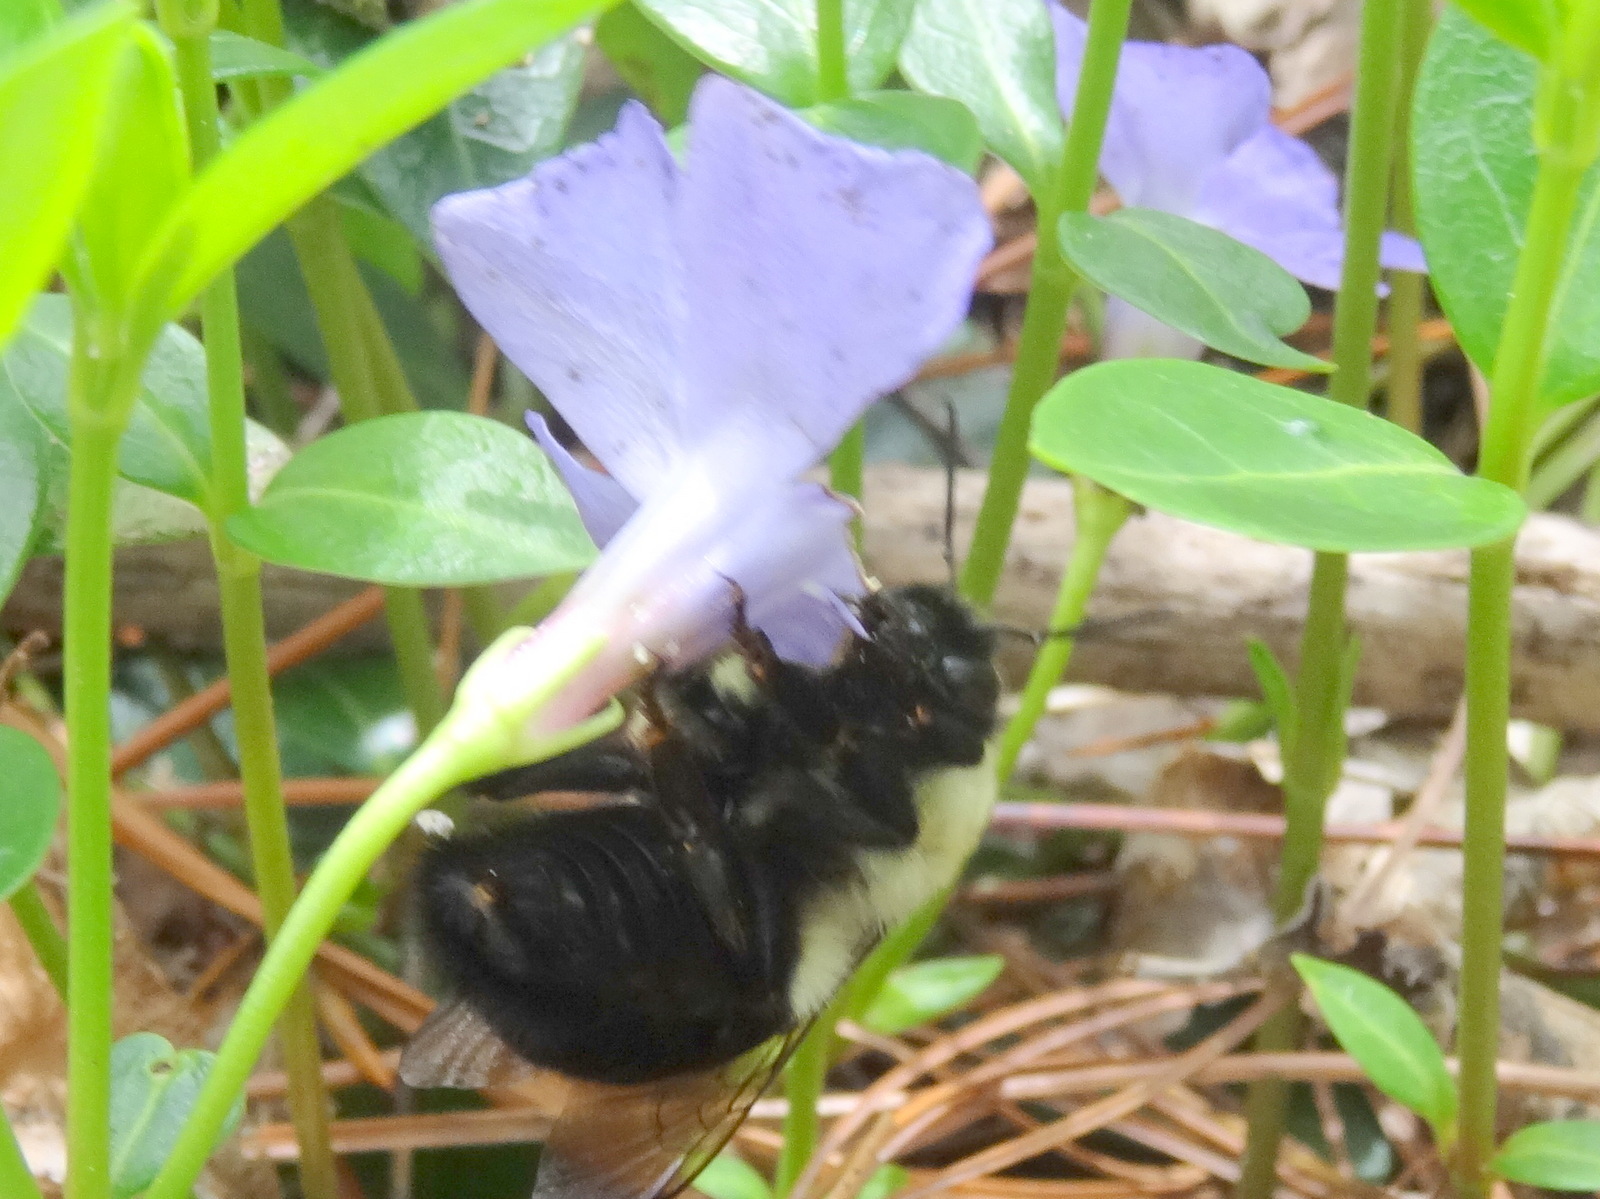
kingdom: Animalia
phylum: Arthropoda
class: Insecta
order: Hymenoptera
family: Apidae
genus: Bombus
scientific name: Bombus impatiens
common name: Common eastern bumble bee
